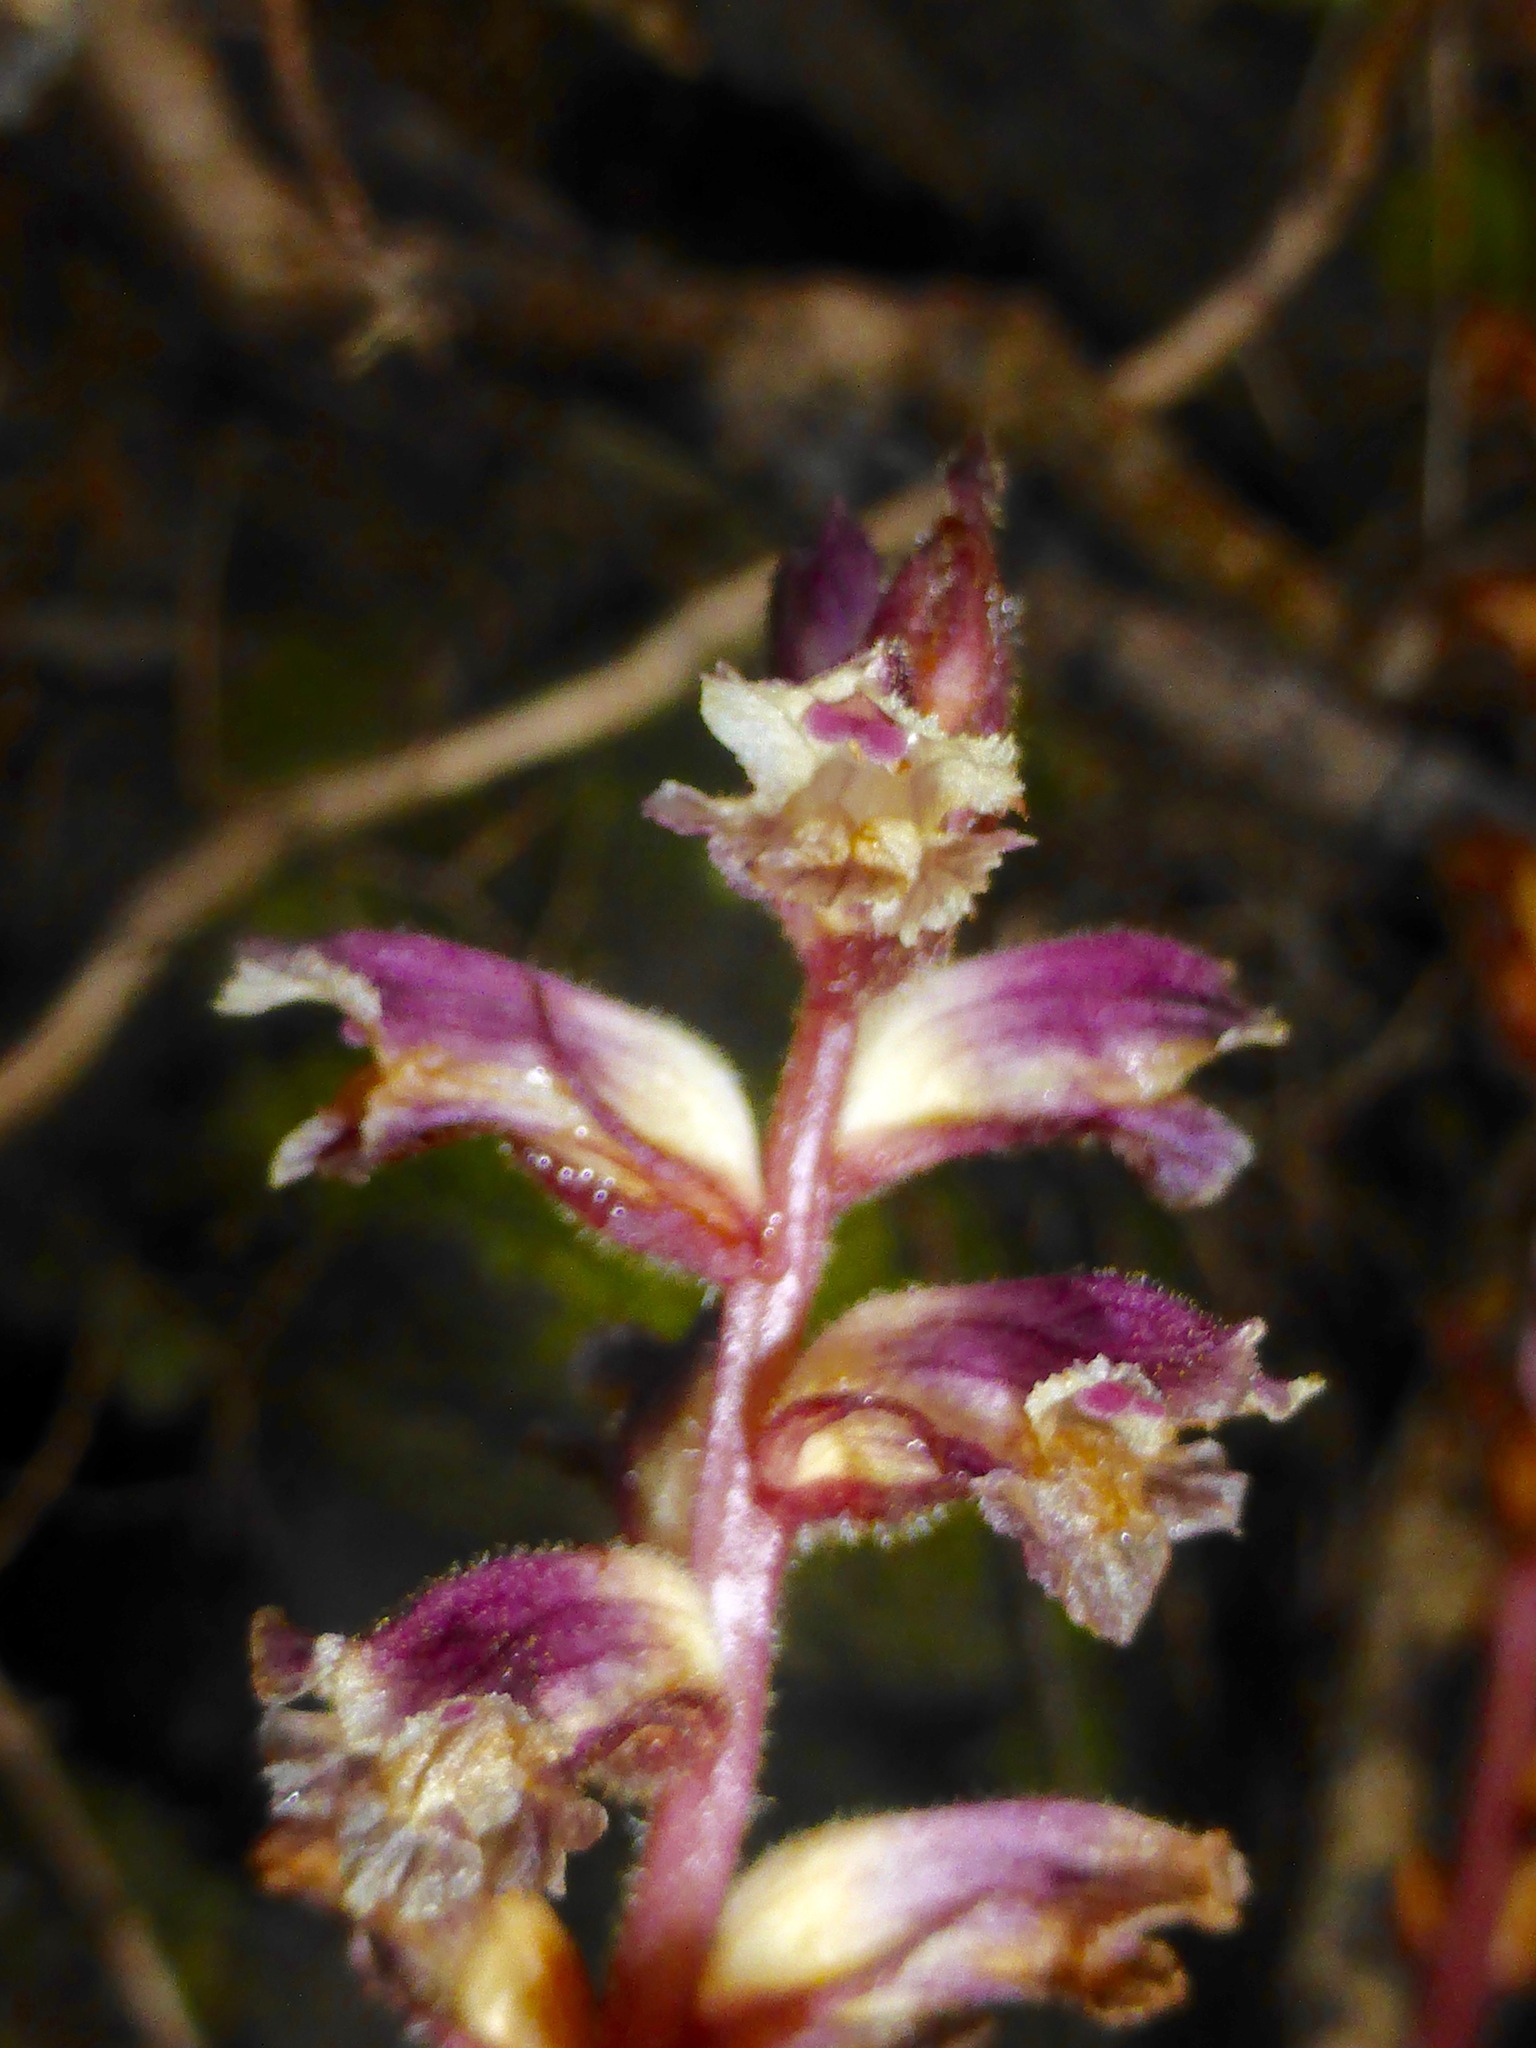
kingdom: Plantae
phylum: Tracheophyta
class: Magnoliopsida
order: Lamiales
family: Orobanchaceae
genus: Orobanche
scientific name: Orobanche minor
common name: Common broomrape
